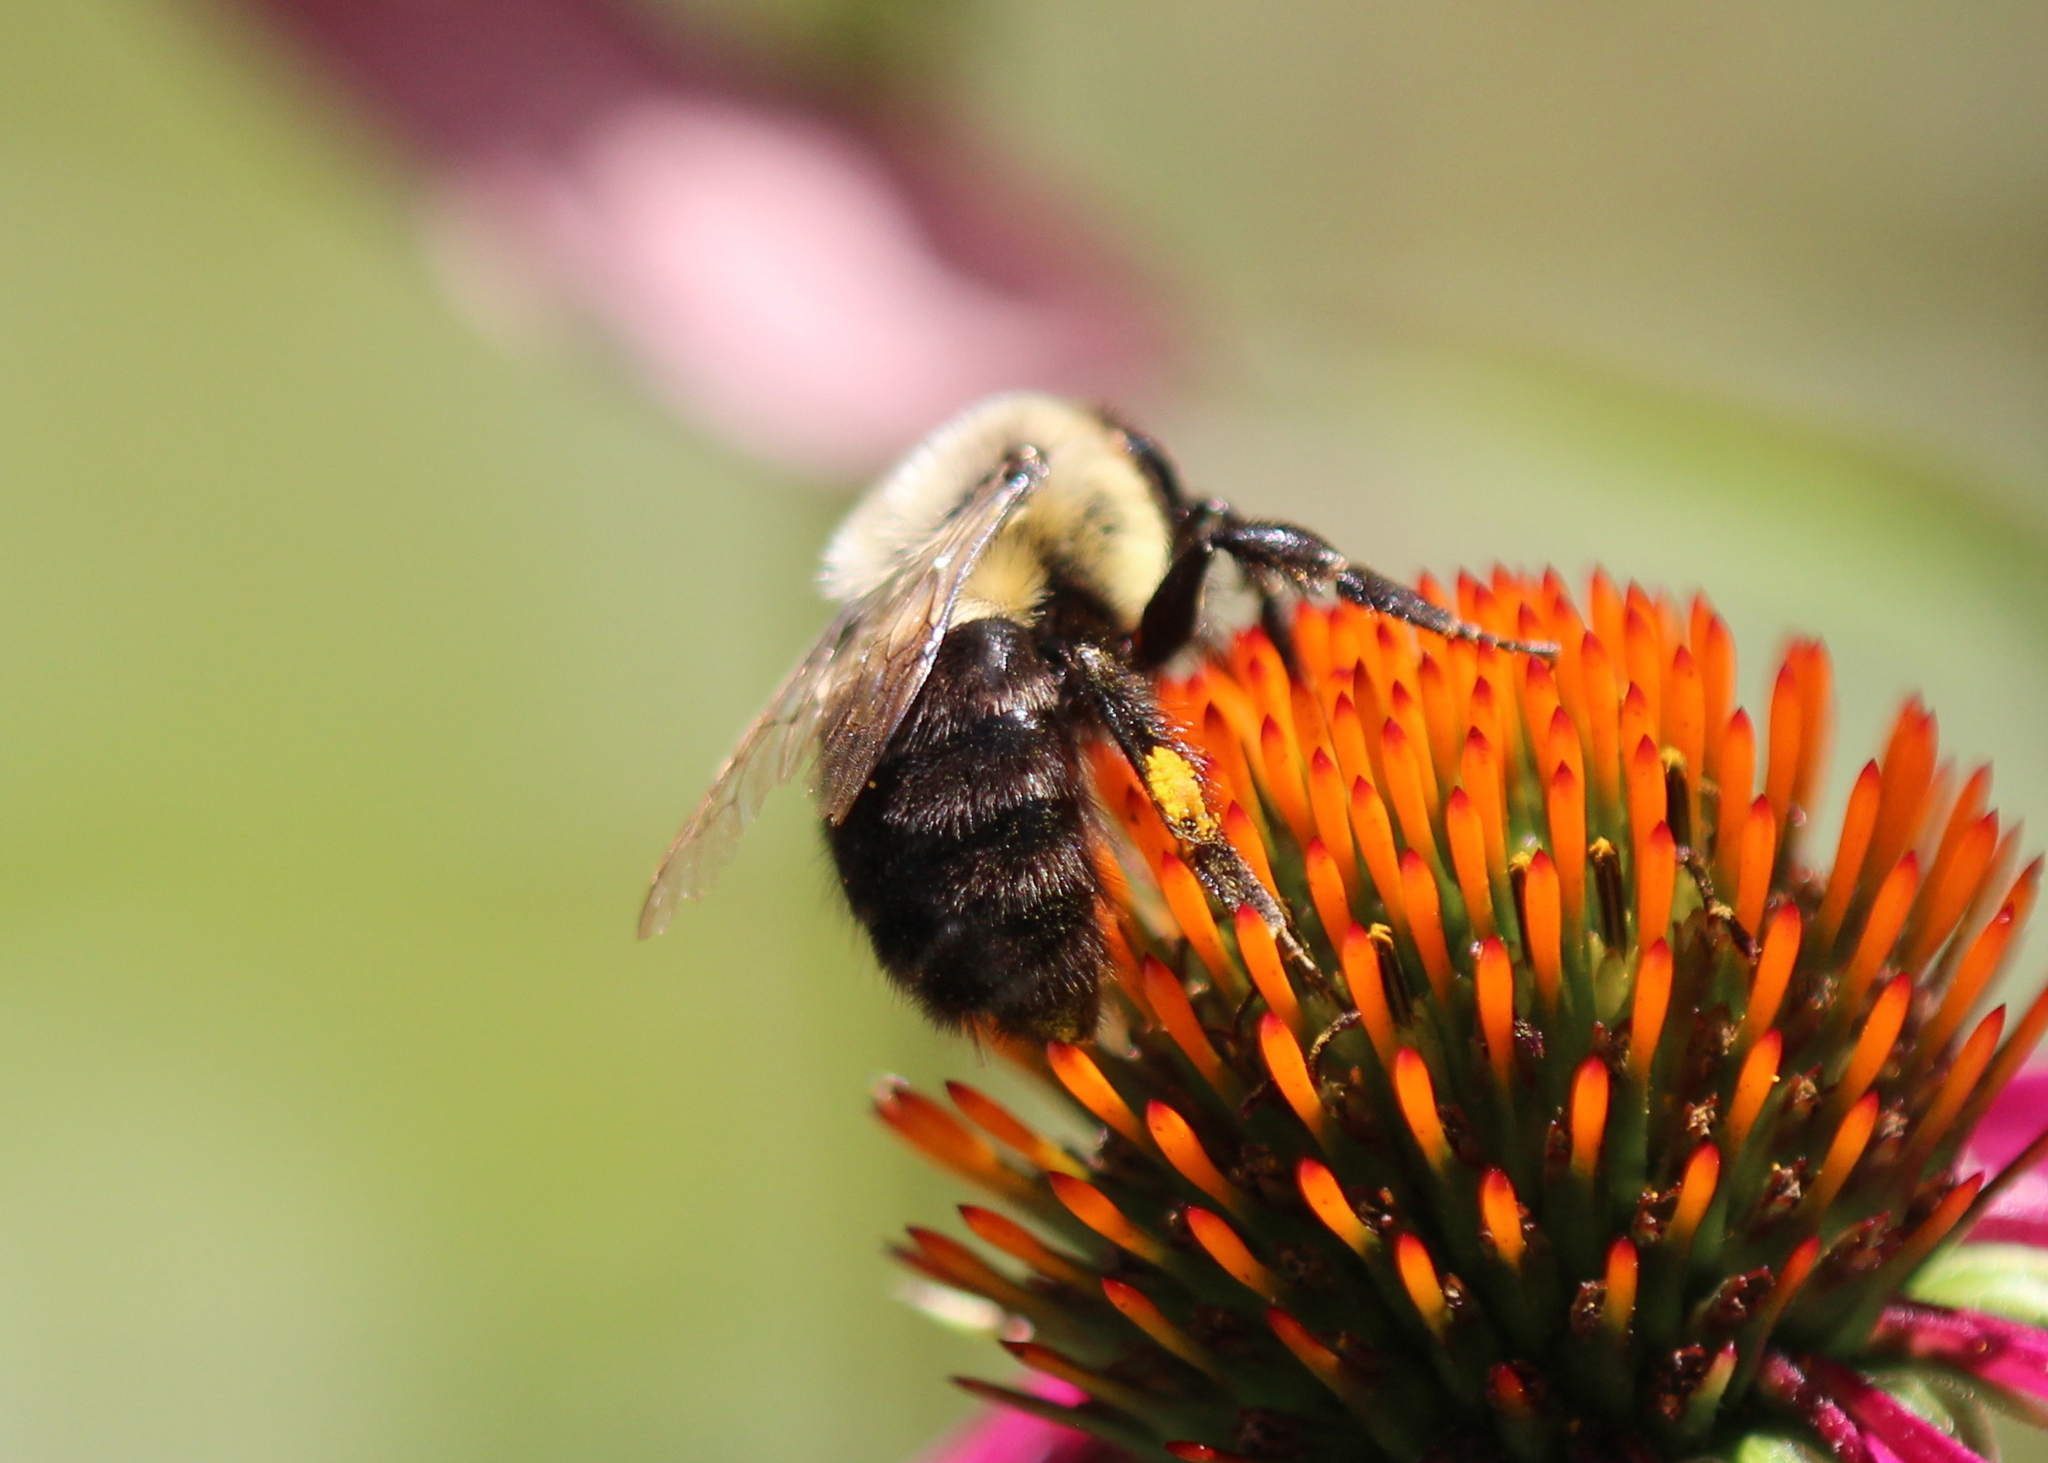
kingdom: Animalia
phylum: Arthropoda
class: Insecta
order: Hymenoptera
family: Apidae
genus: Bombus
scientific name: Bombus impatiens
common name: Common eastern bumble bee
